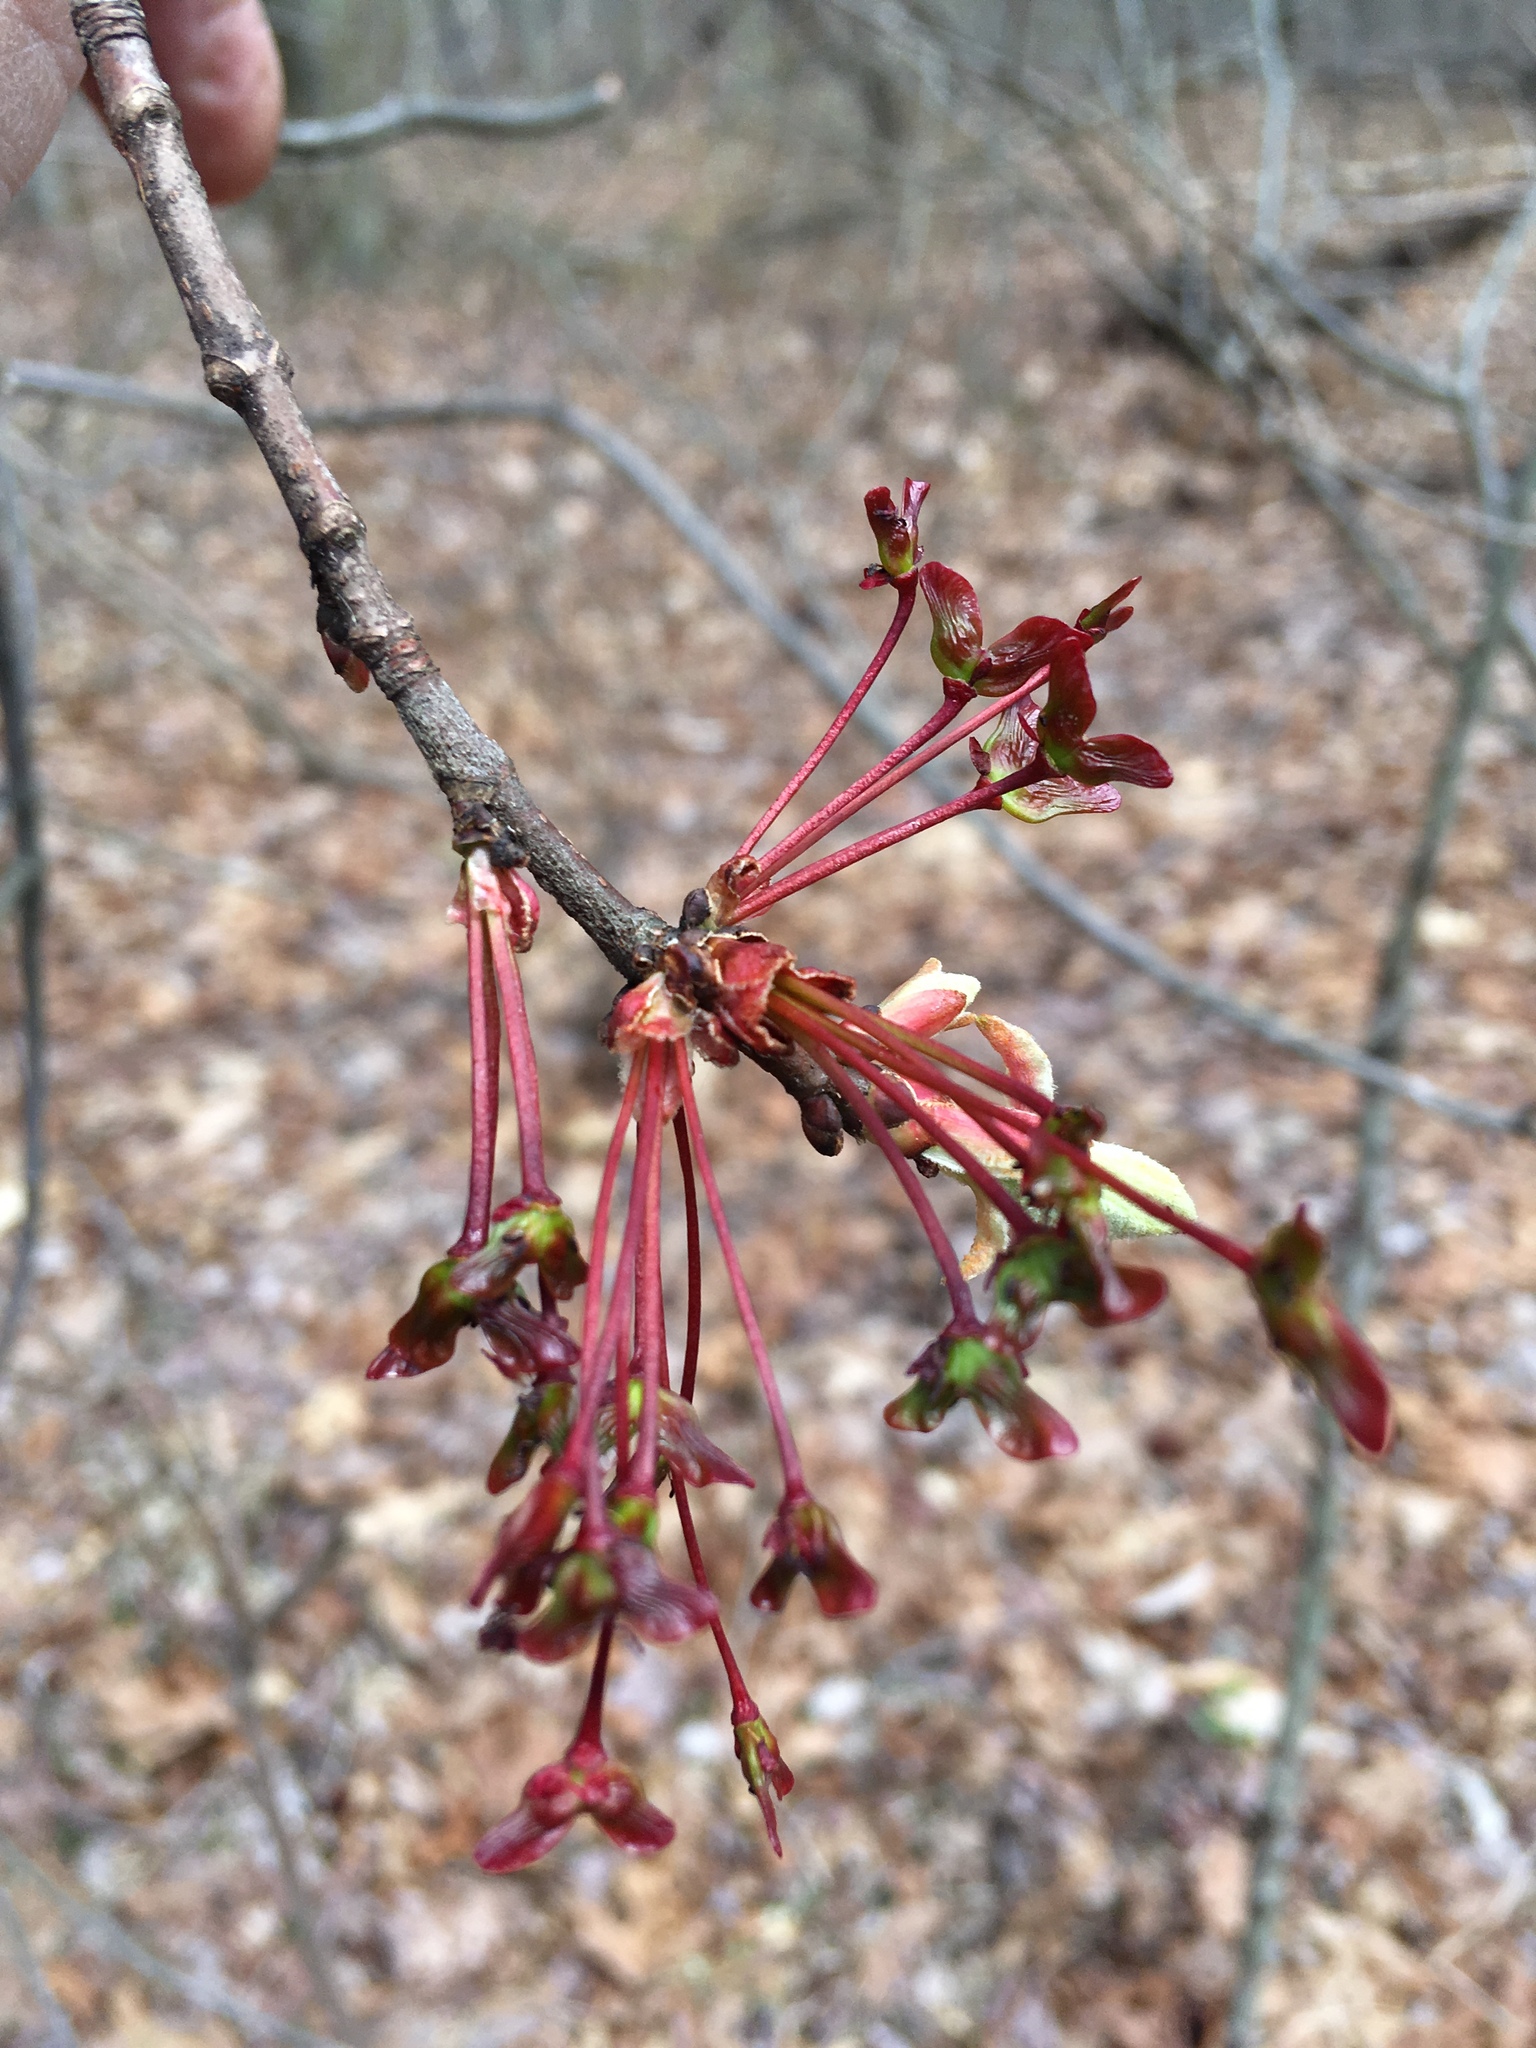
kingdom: Plantae
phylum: Tracheophyta
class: Magnoliopsida
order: Sapindales
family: Sapindaceae
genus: Acer
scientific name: Acer rubrum
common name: Red maple
